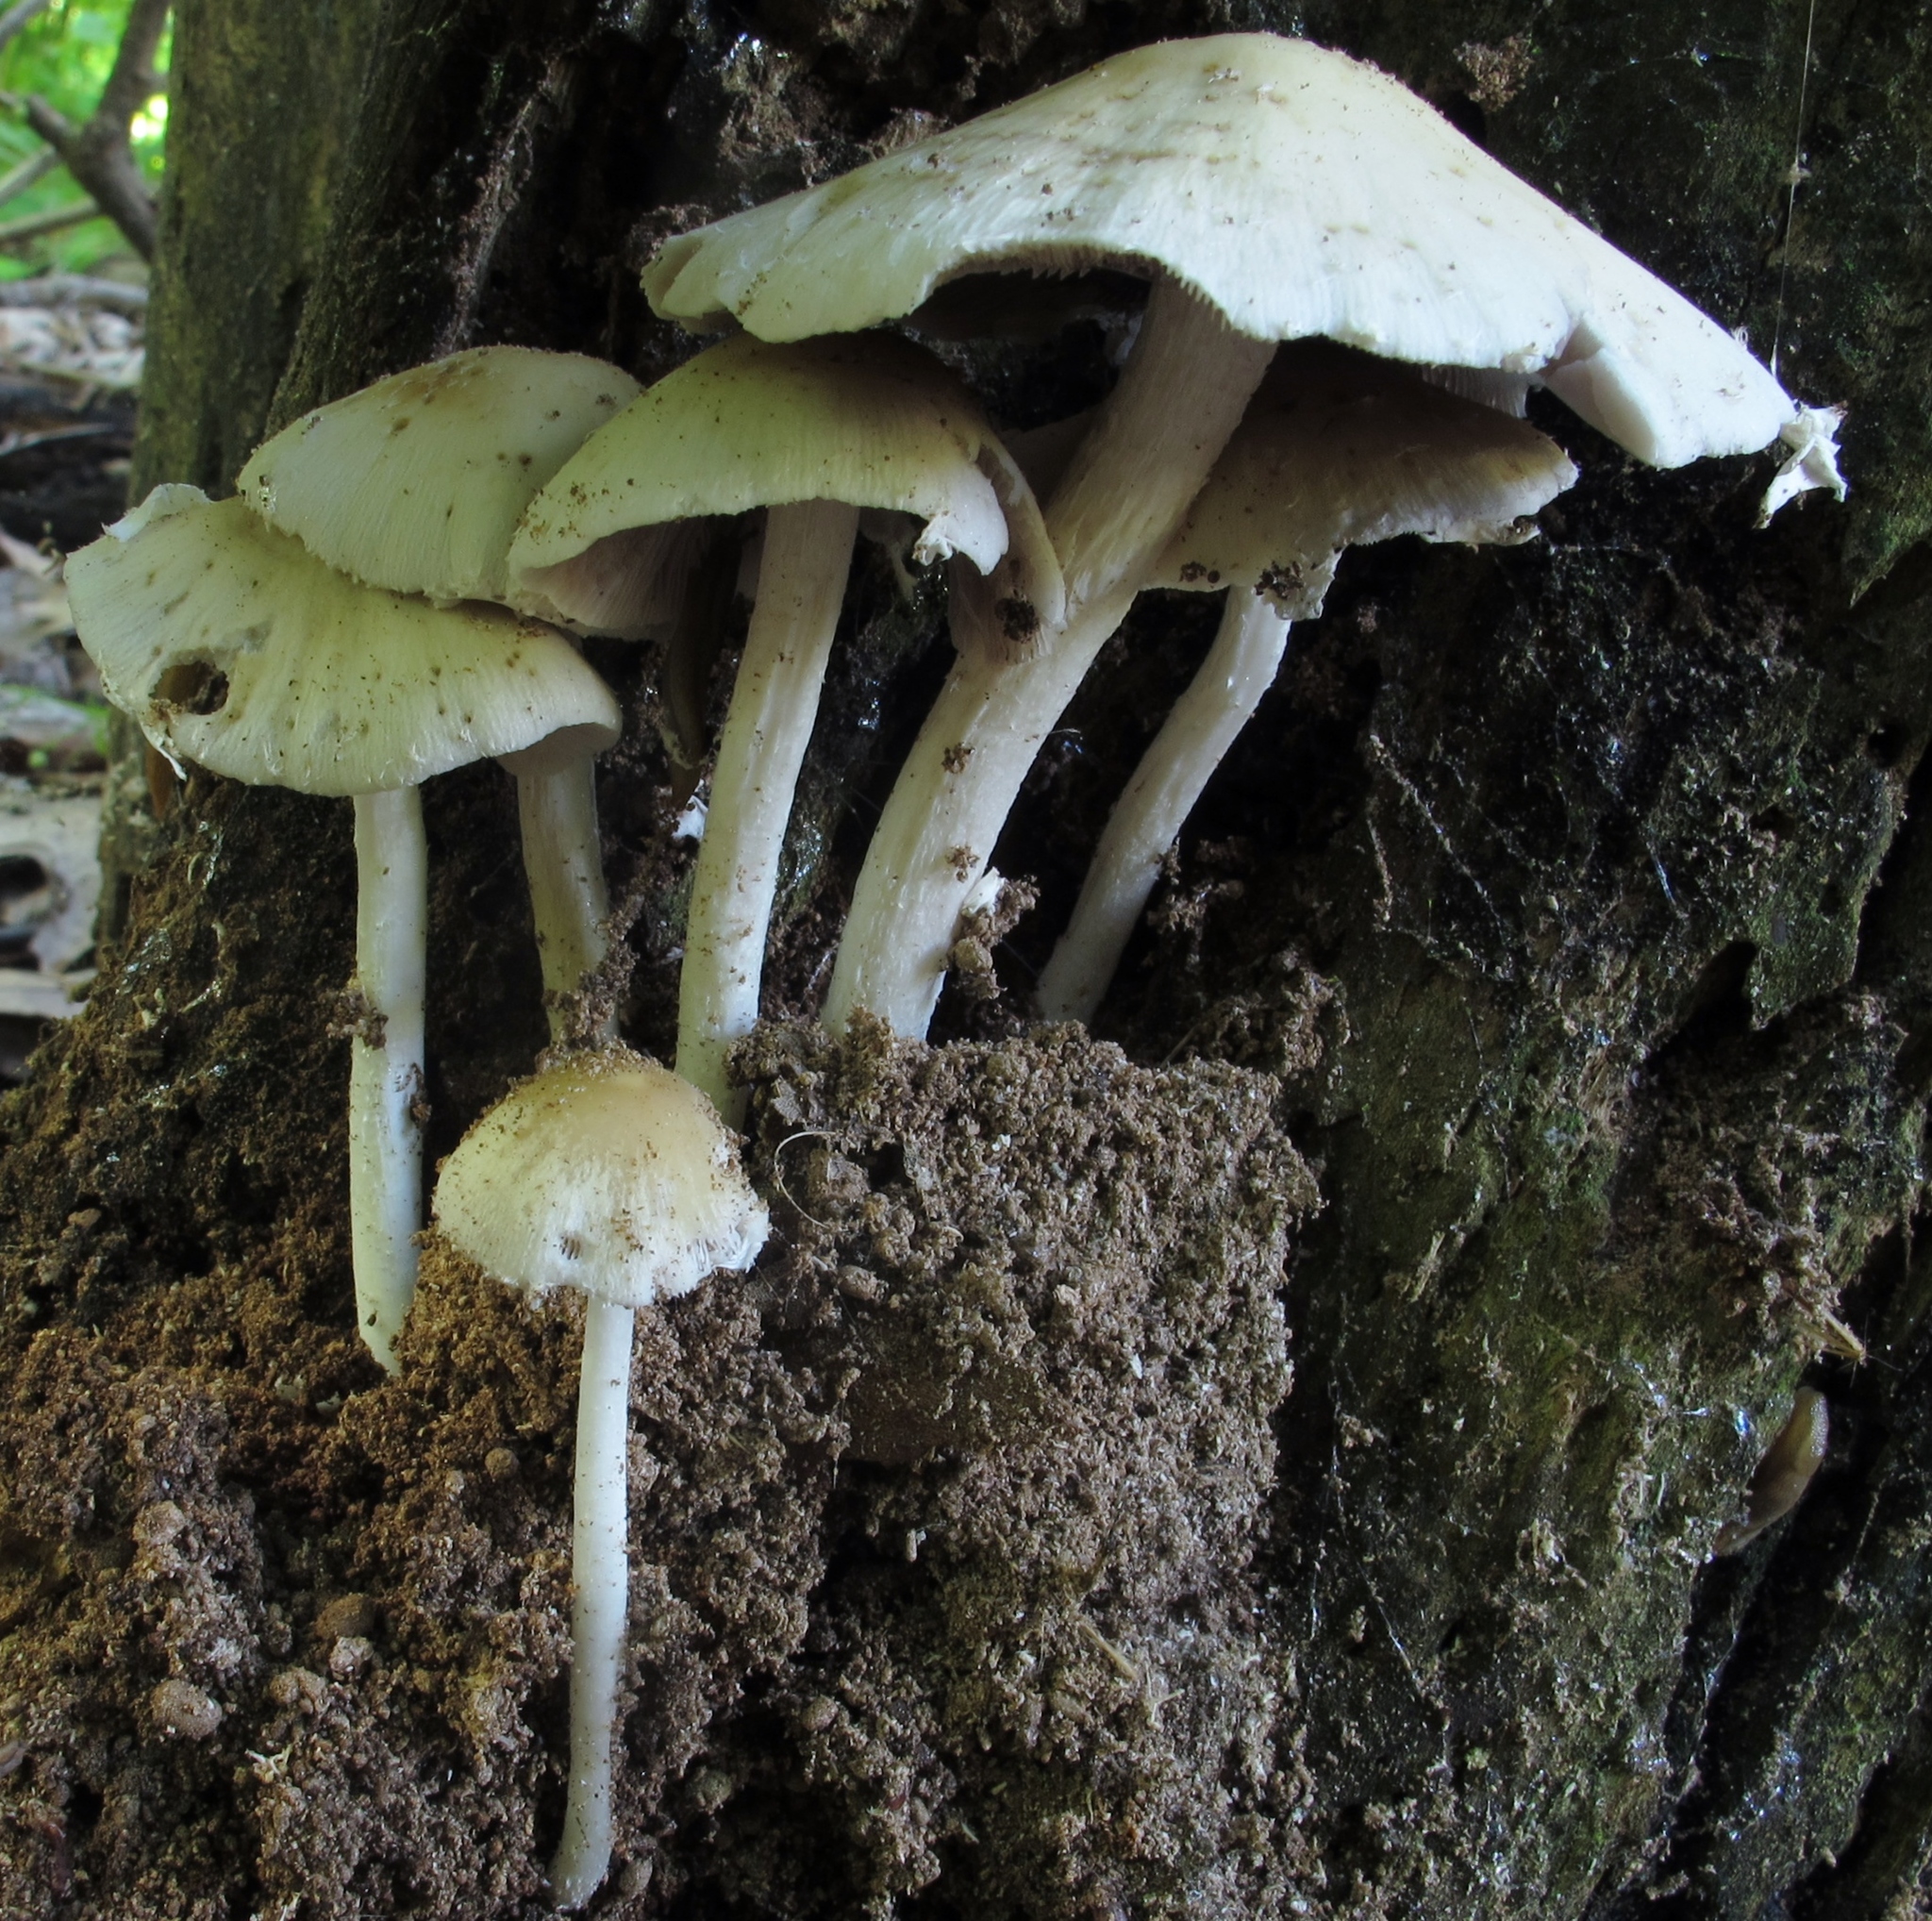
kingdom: Fungi
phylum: Basidiomycota
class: Agaricomycetes
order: Agaricales
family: Psathyrellaceae
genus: Candolleomyces
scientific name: Candolleomyces candolleanus
